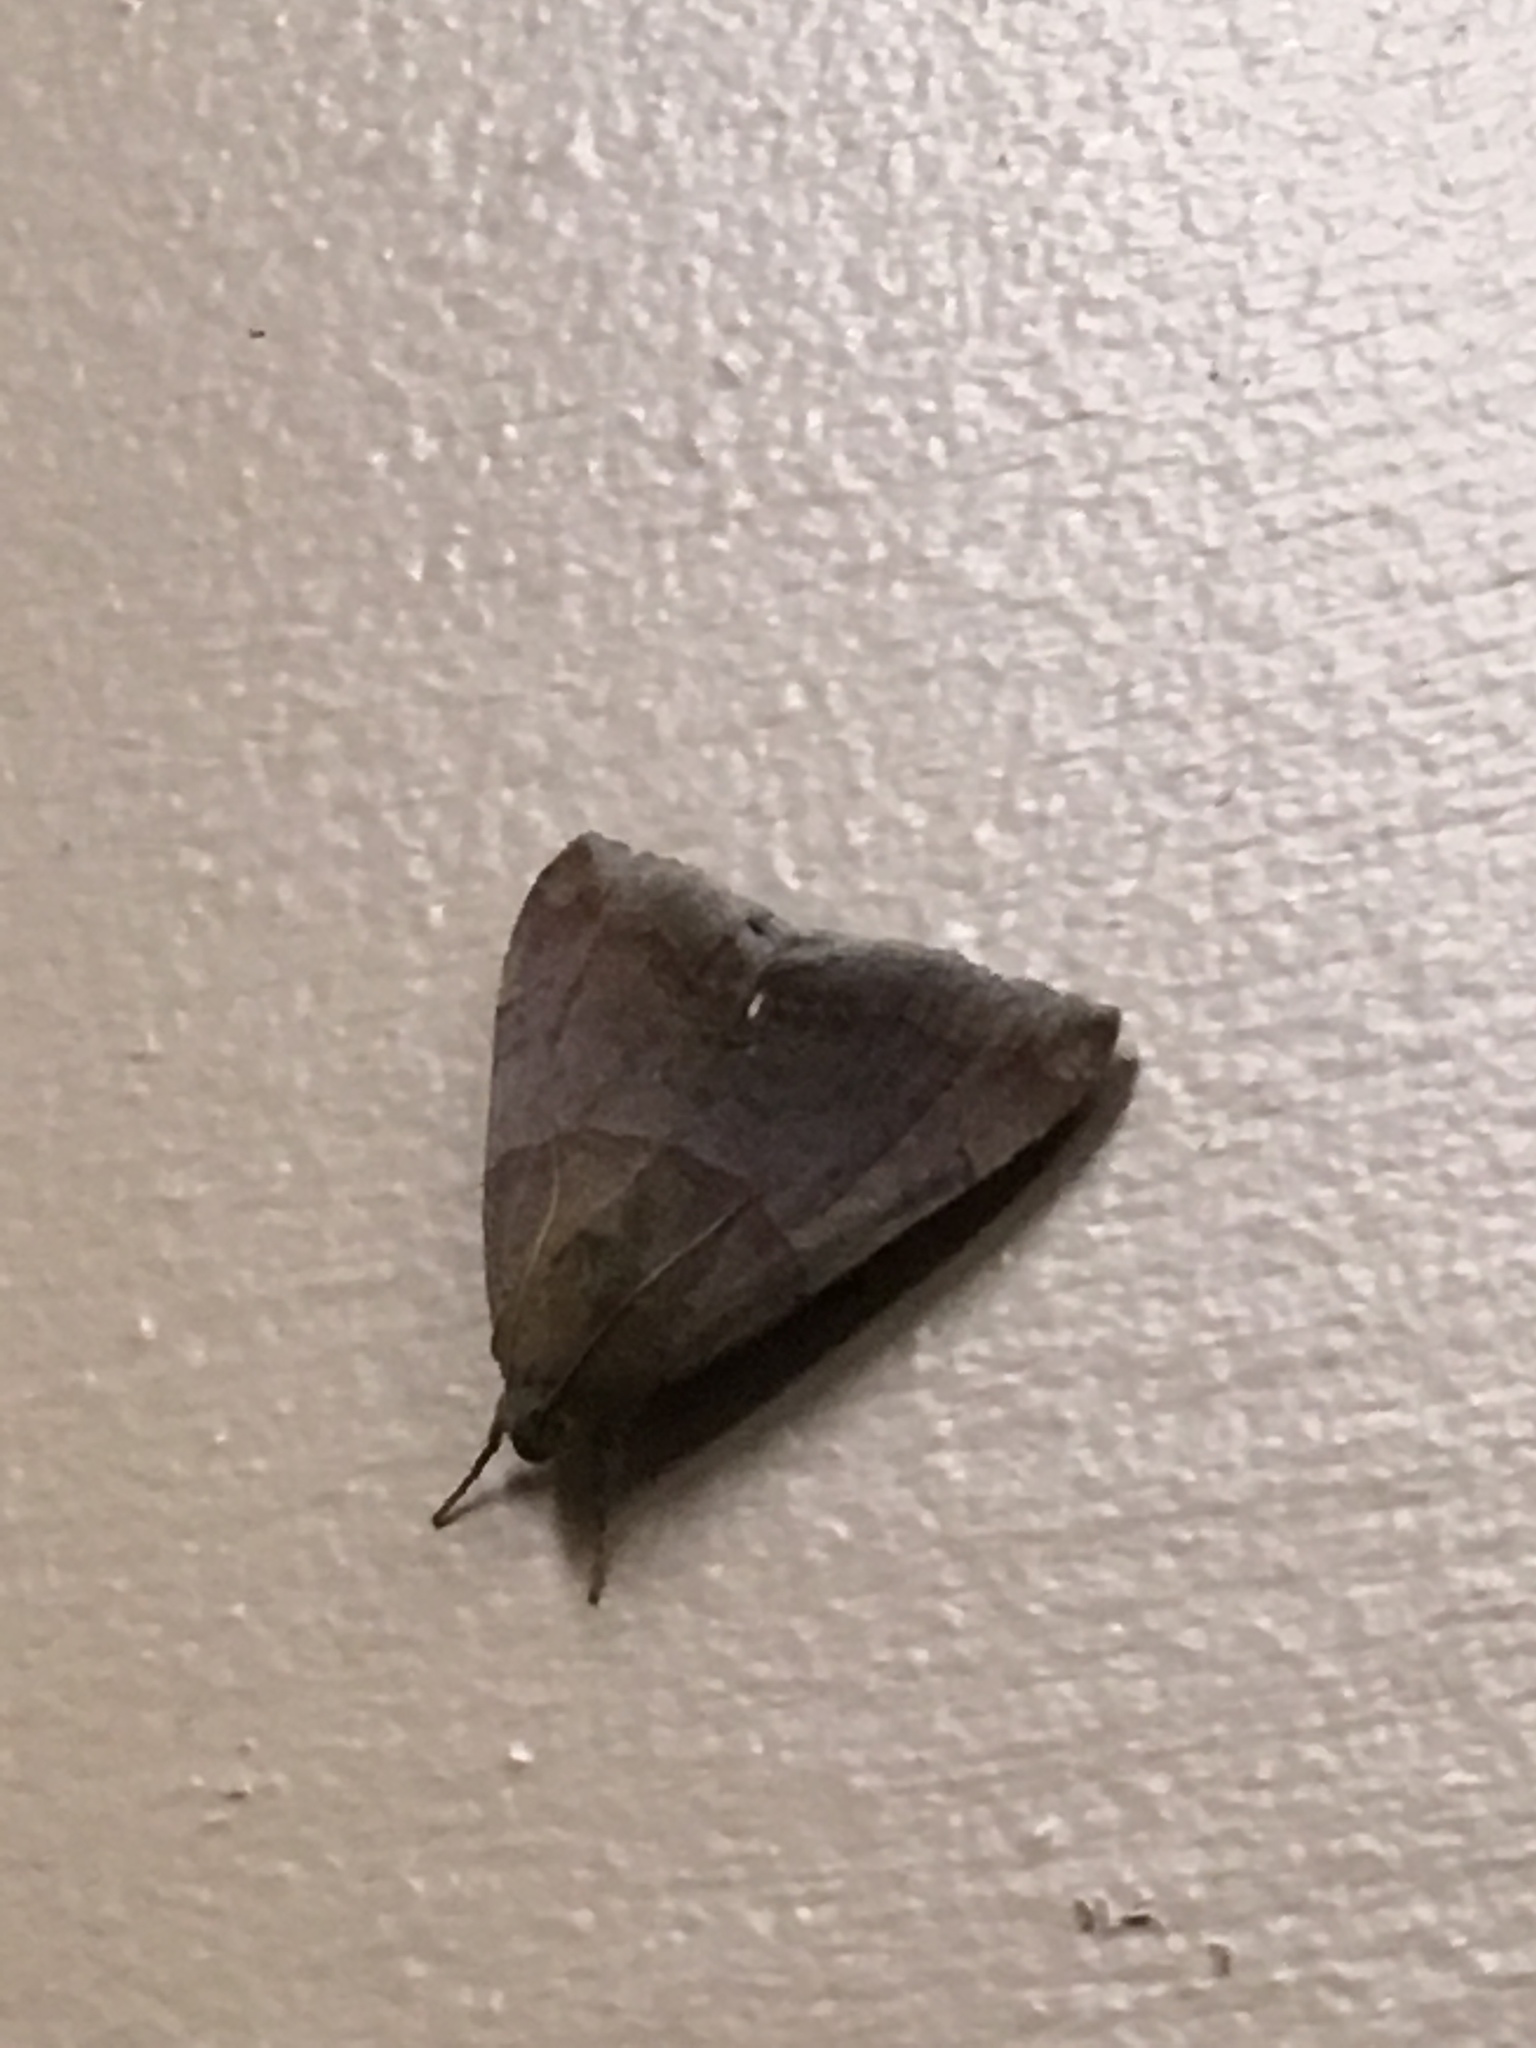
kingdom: Animalia
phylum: Arthropoda
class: Insecta
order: Lepidoptera
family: Erebidae
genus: Achaea
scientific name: Achaea janata
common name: Croton caterpillar
